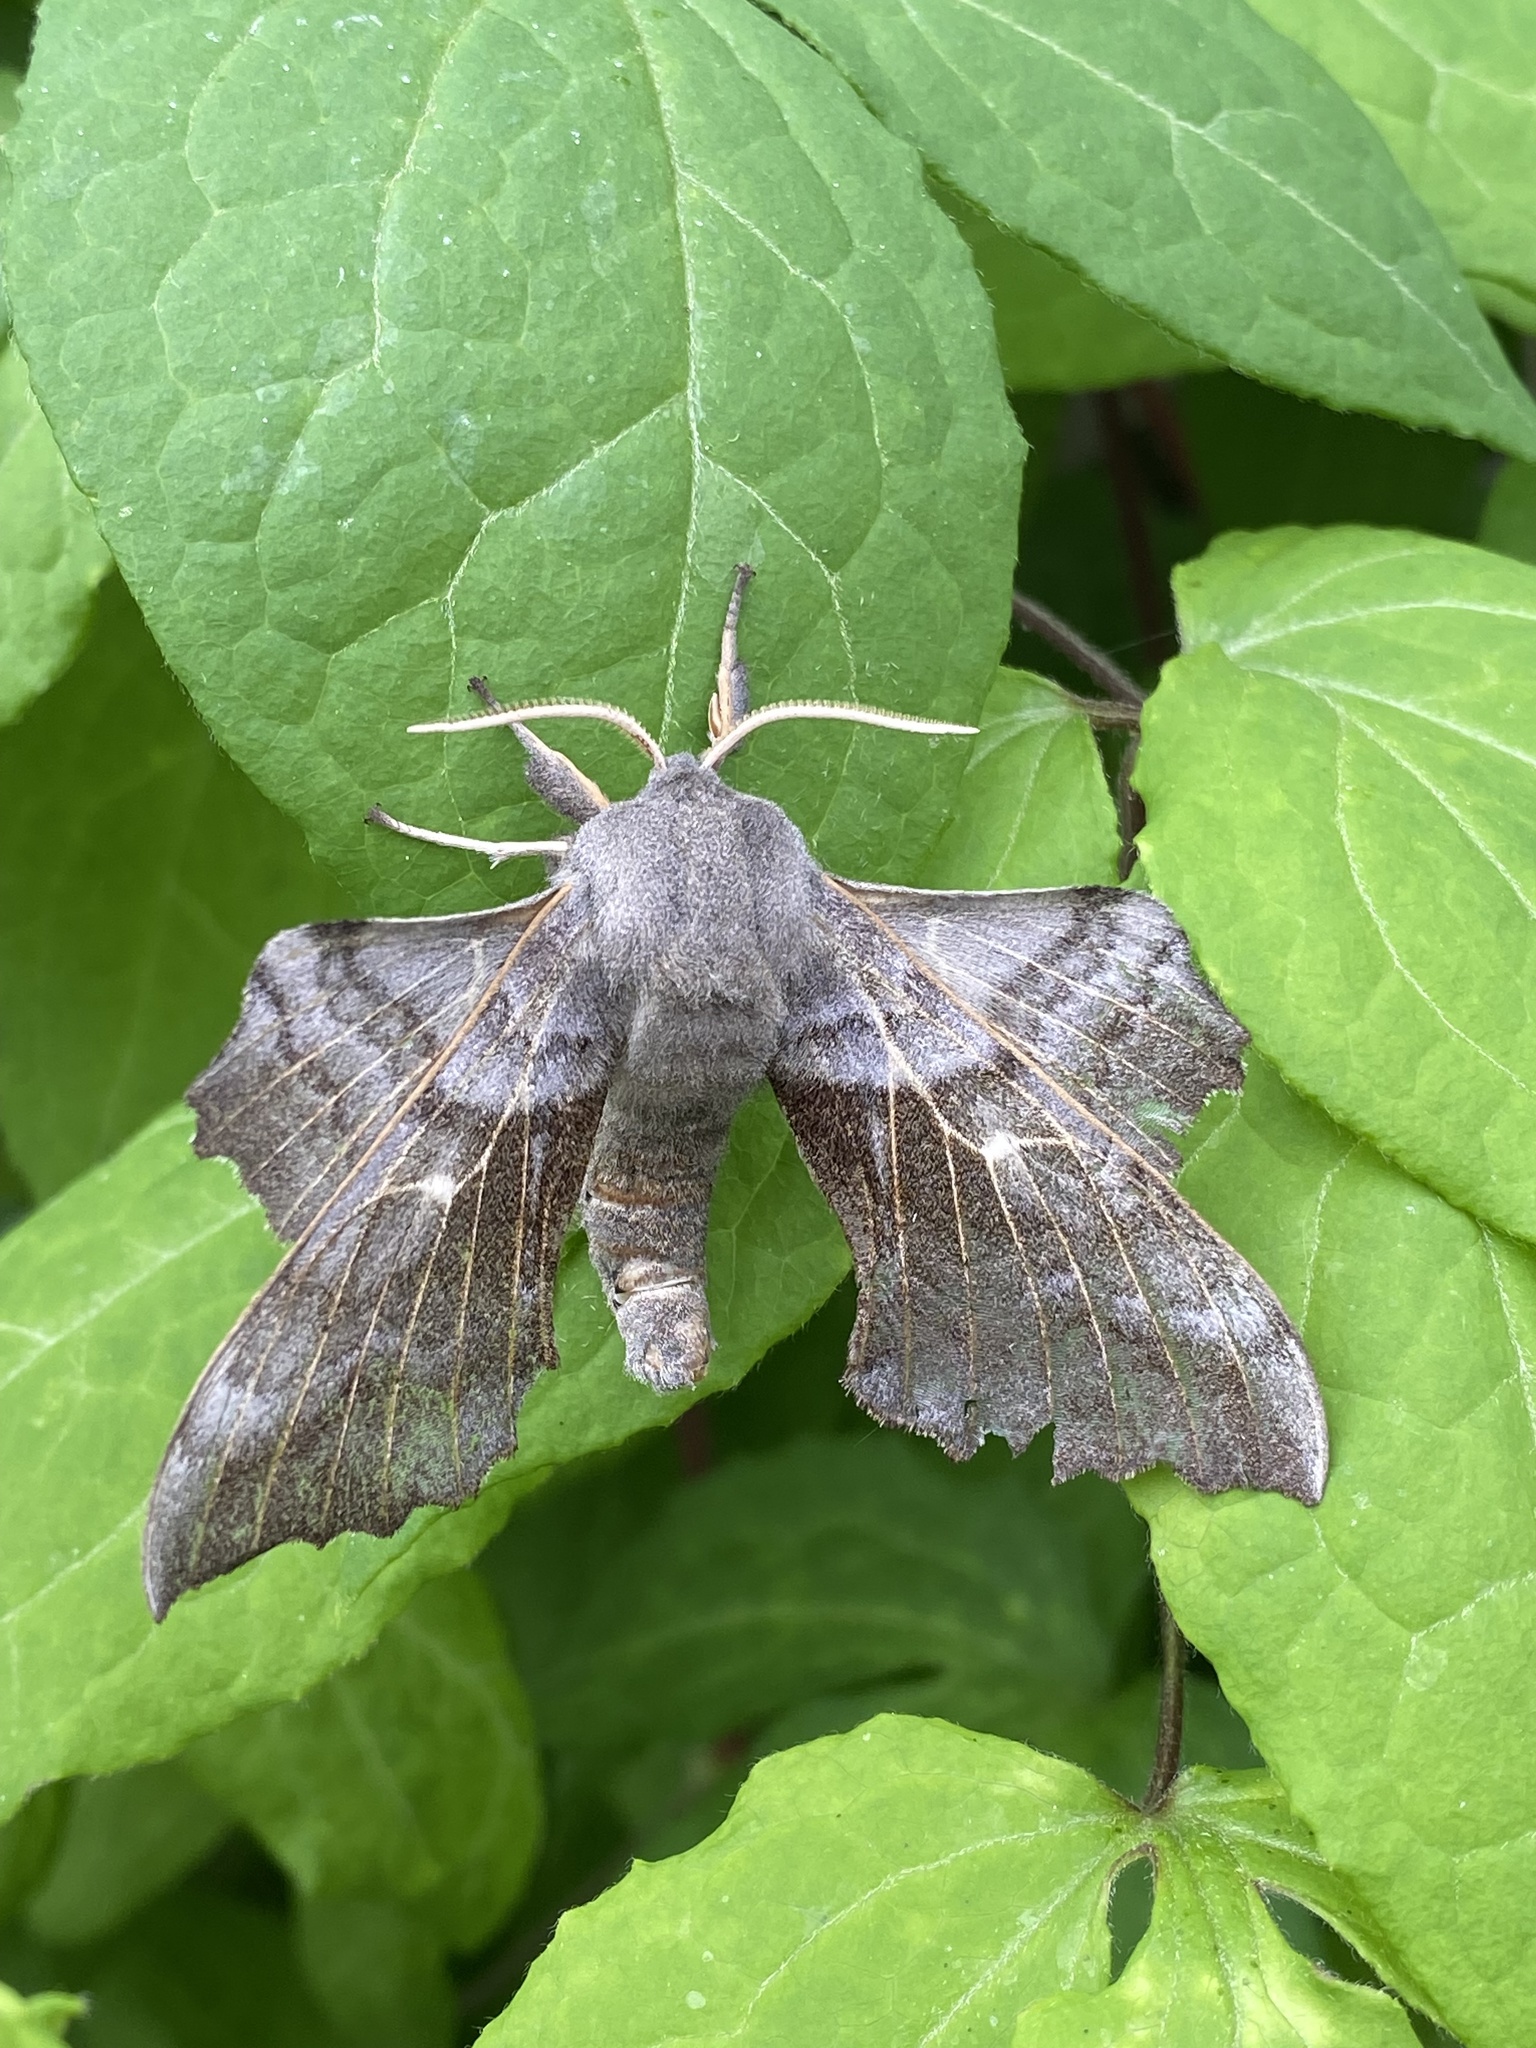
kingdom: Animalia
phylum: Arthropoda
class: Insecta
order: Lepidoptera
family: Sphingidae
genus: Laothoe
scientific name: Laothoe populi
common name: Poplar hawk-moth
